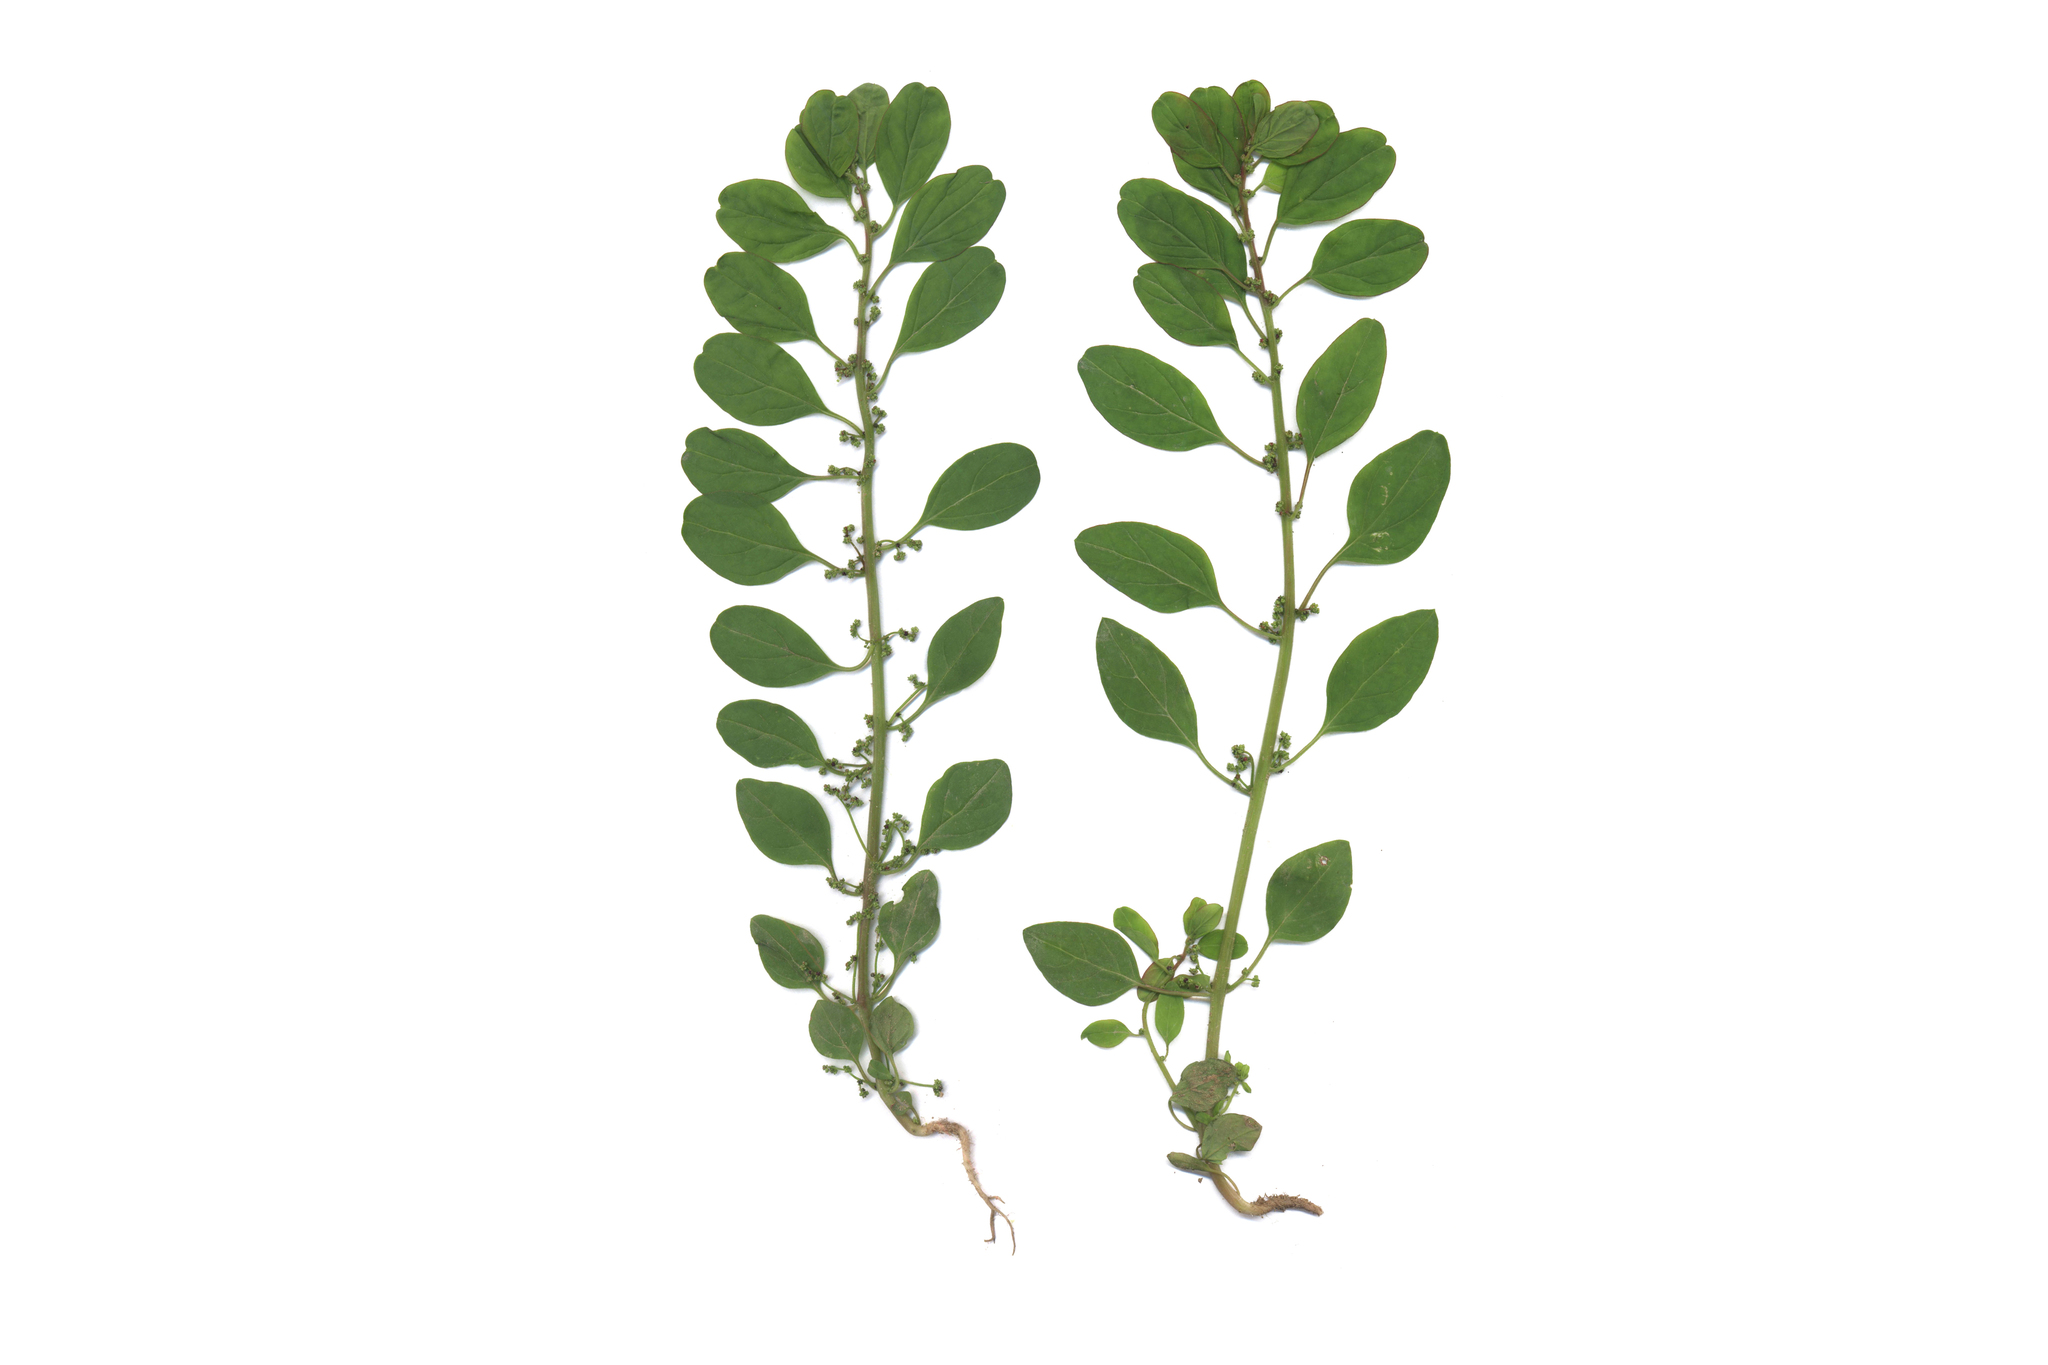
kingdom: Plantae
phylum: Tracheophyta
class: Magnoliopsida
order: Caryophyllales
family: Amaranthaceae
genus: Lipandra
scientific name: Lipandra polysperma
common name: Many-seed goosefoot
